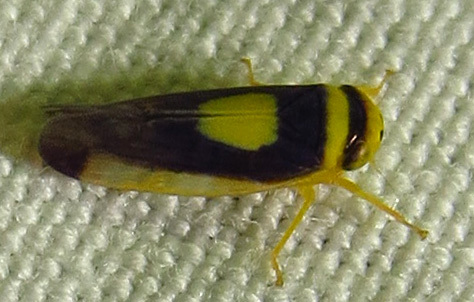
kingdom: Animalia
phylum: Arthropoda
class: Insecta
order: Hemiptera
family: Cicadellidae
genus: Colladonus
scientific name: Colladonus clitellarius
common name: The saddleback leafhopper
